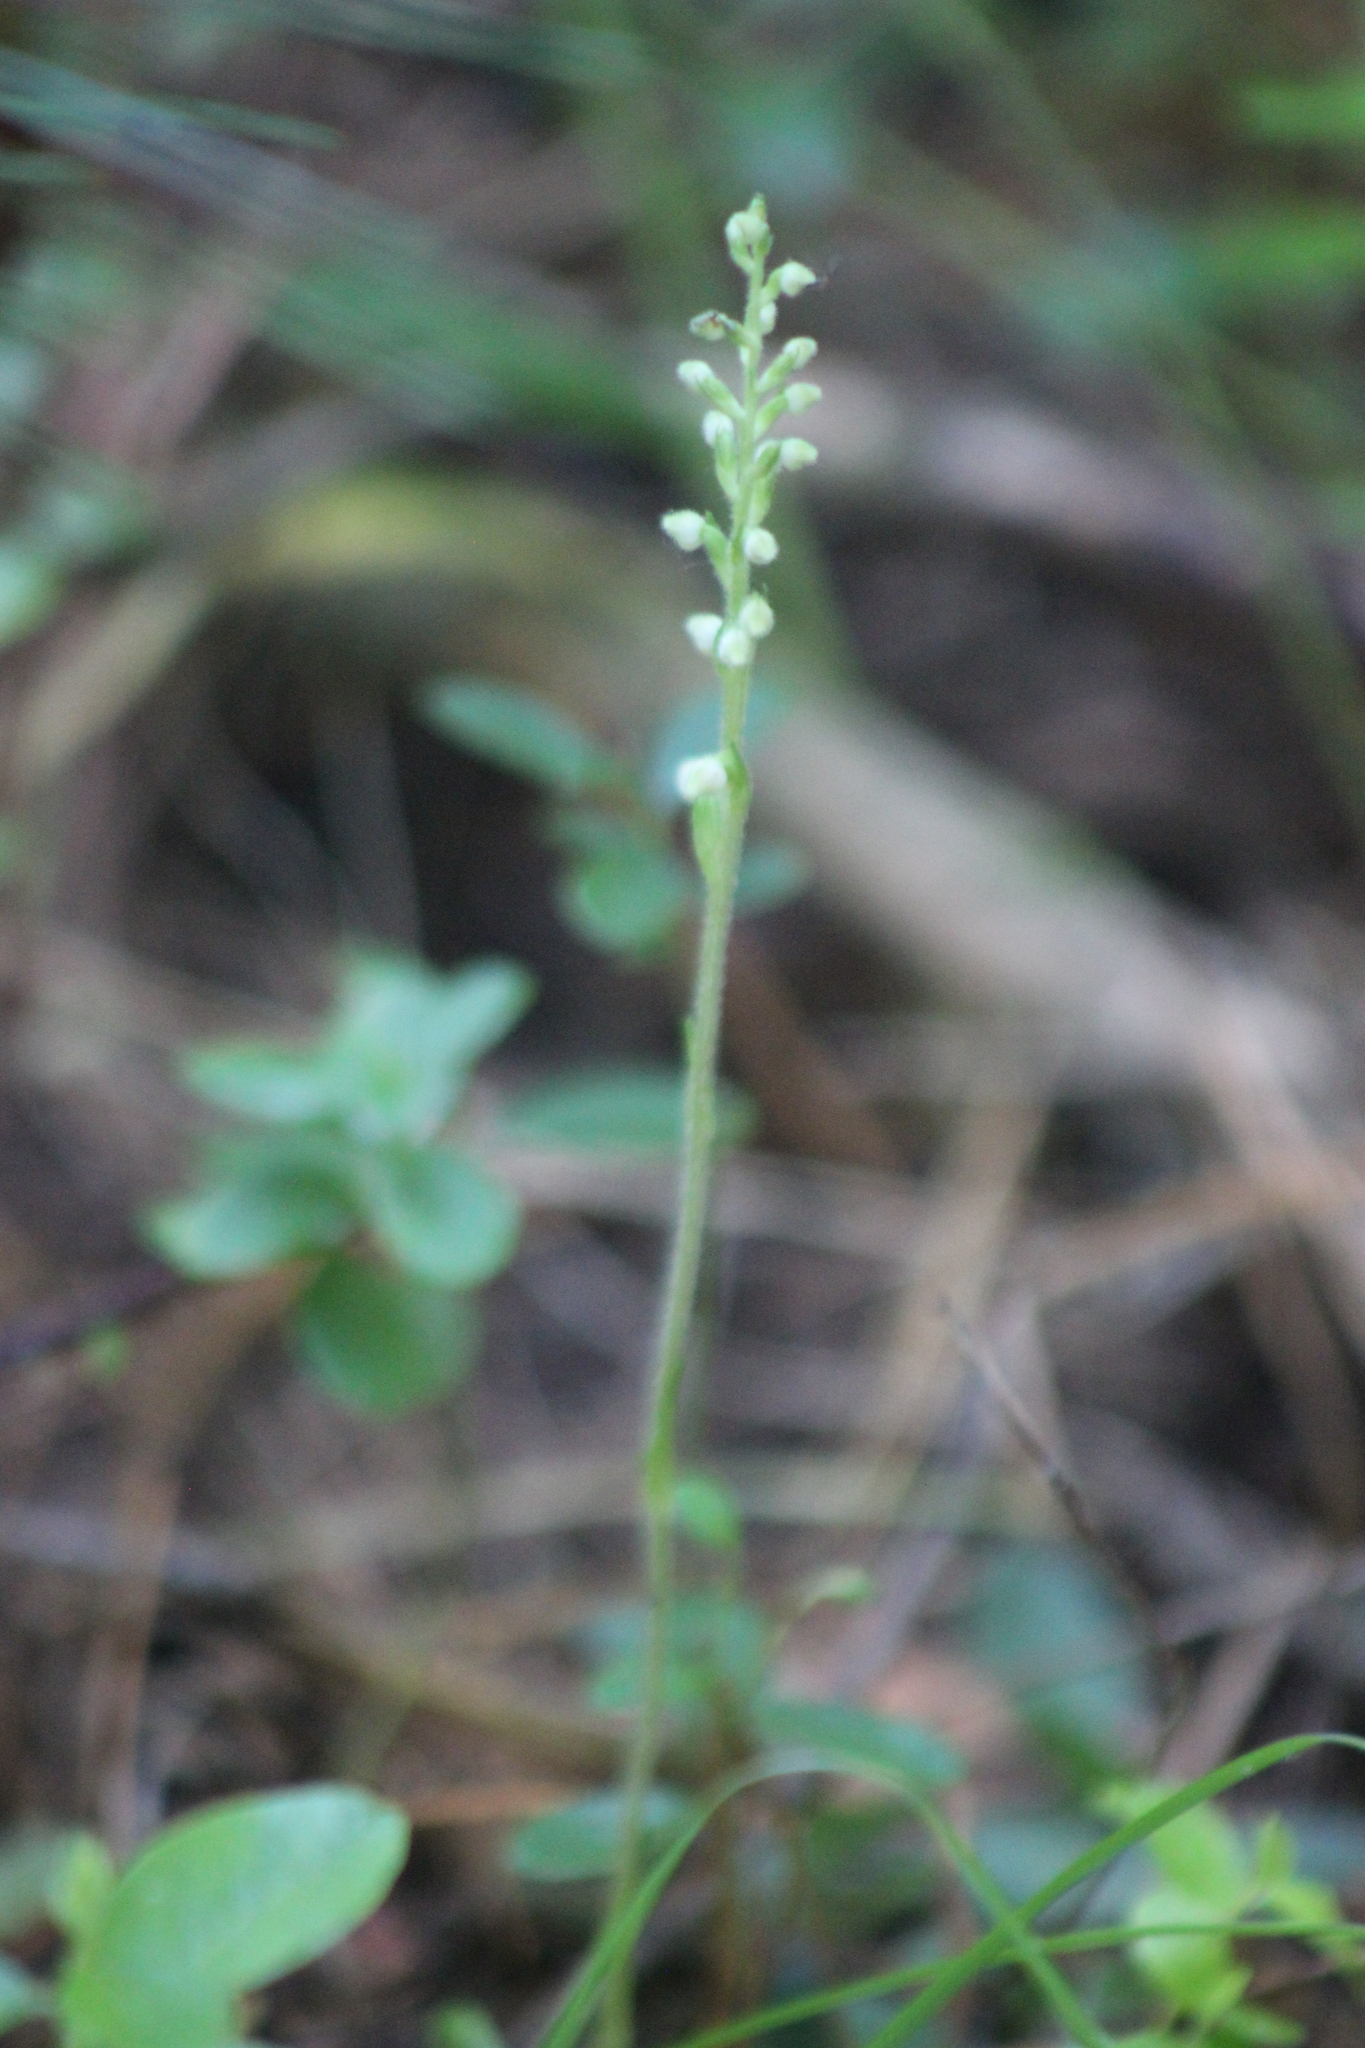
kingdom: Plantae
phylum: Tracheophyta
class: Liliopsida
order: Asparagales
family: Orchidaceae
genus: Goodyera
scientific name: Goodyera repens
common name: Creeping lady's-tresses
